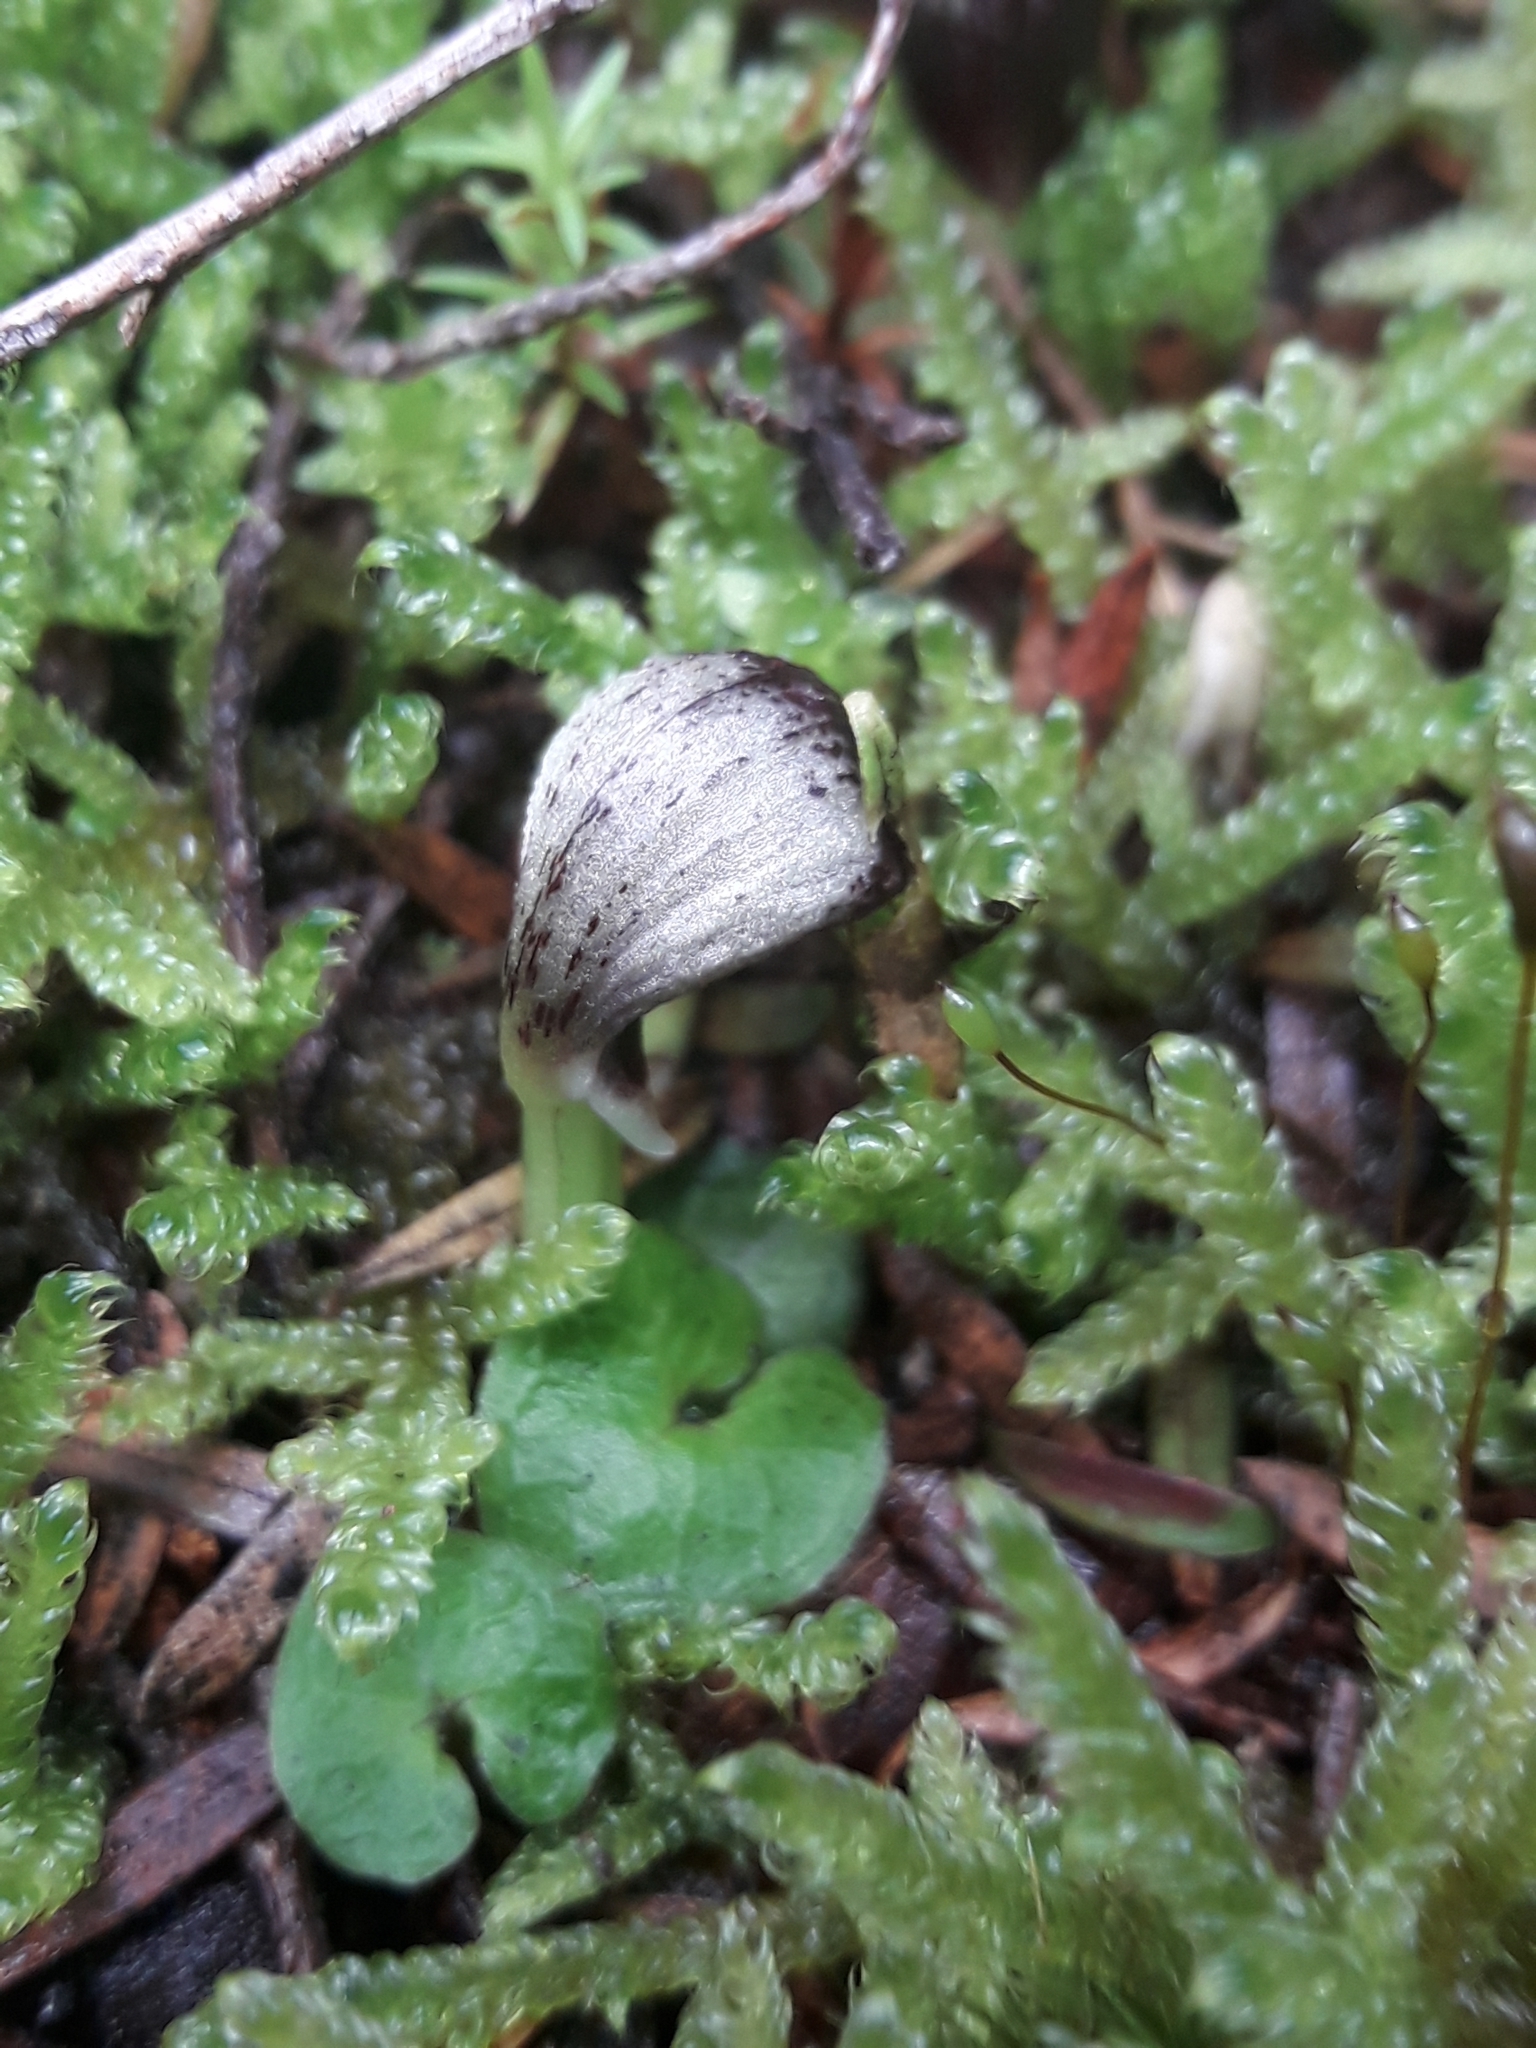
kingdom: Plantae
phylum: Tracheophyta
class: Liliopsida
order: Asparagales
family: Orchidaceae
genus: Corybas
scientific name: Corybas cheesemanii
